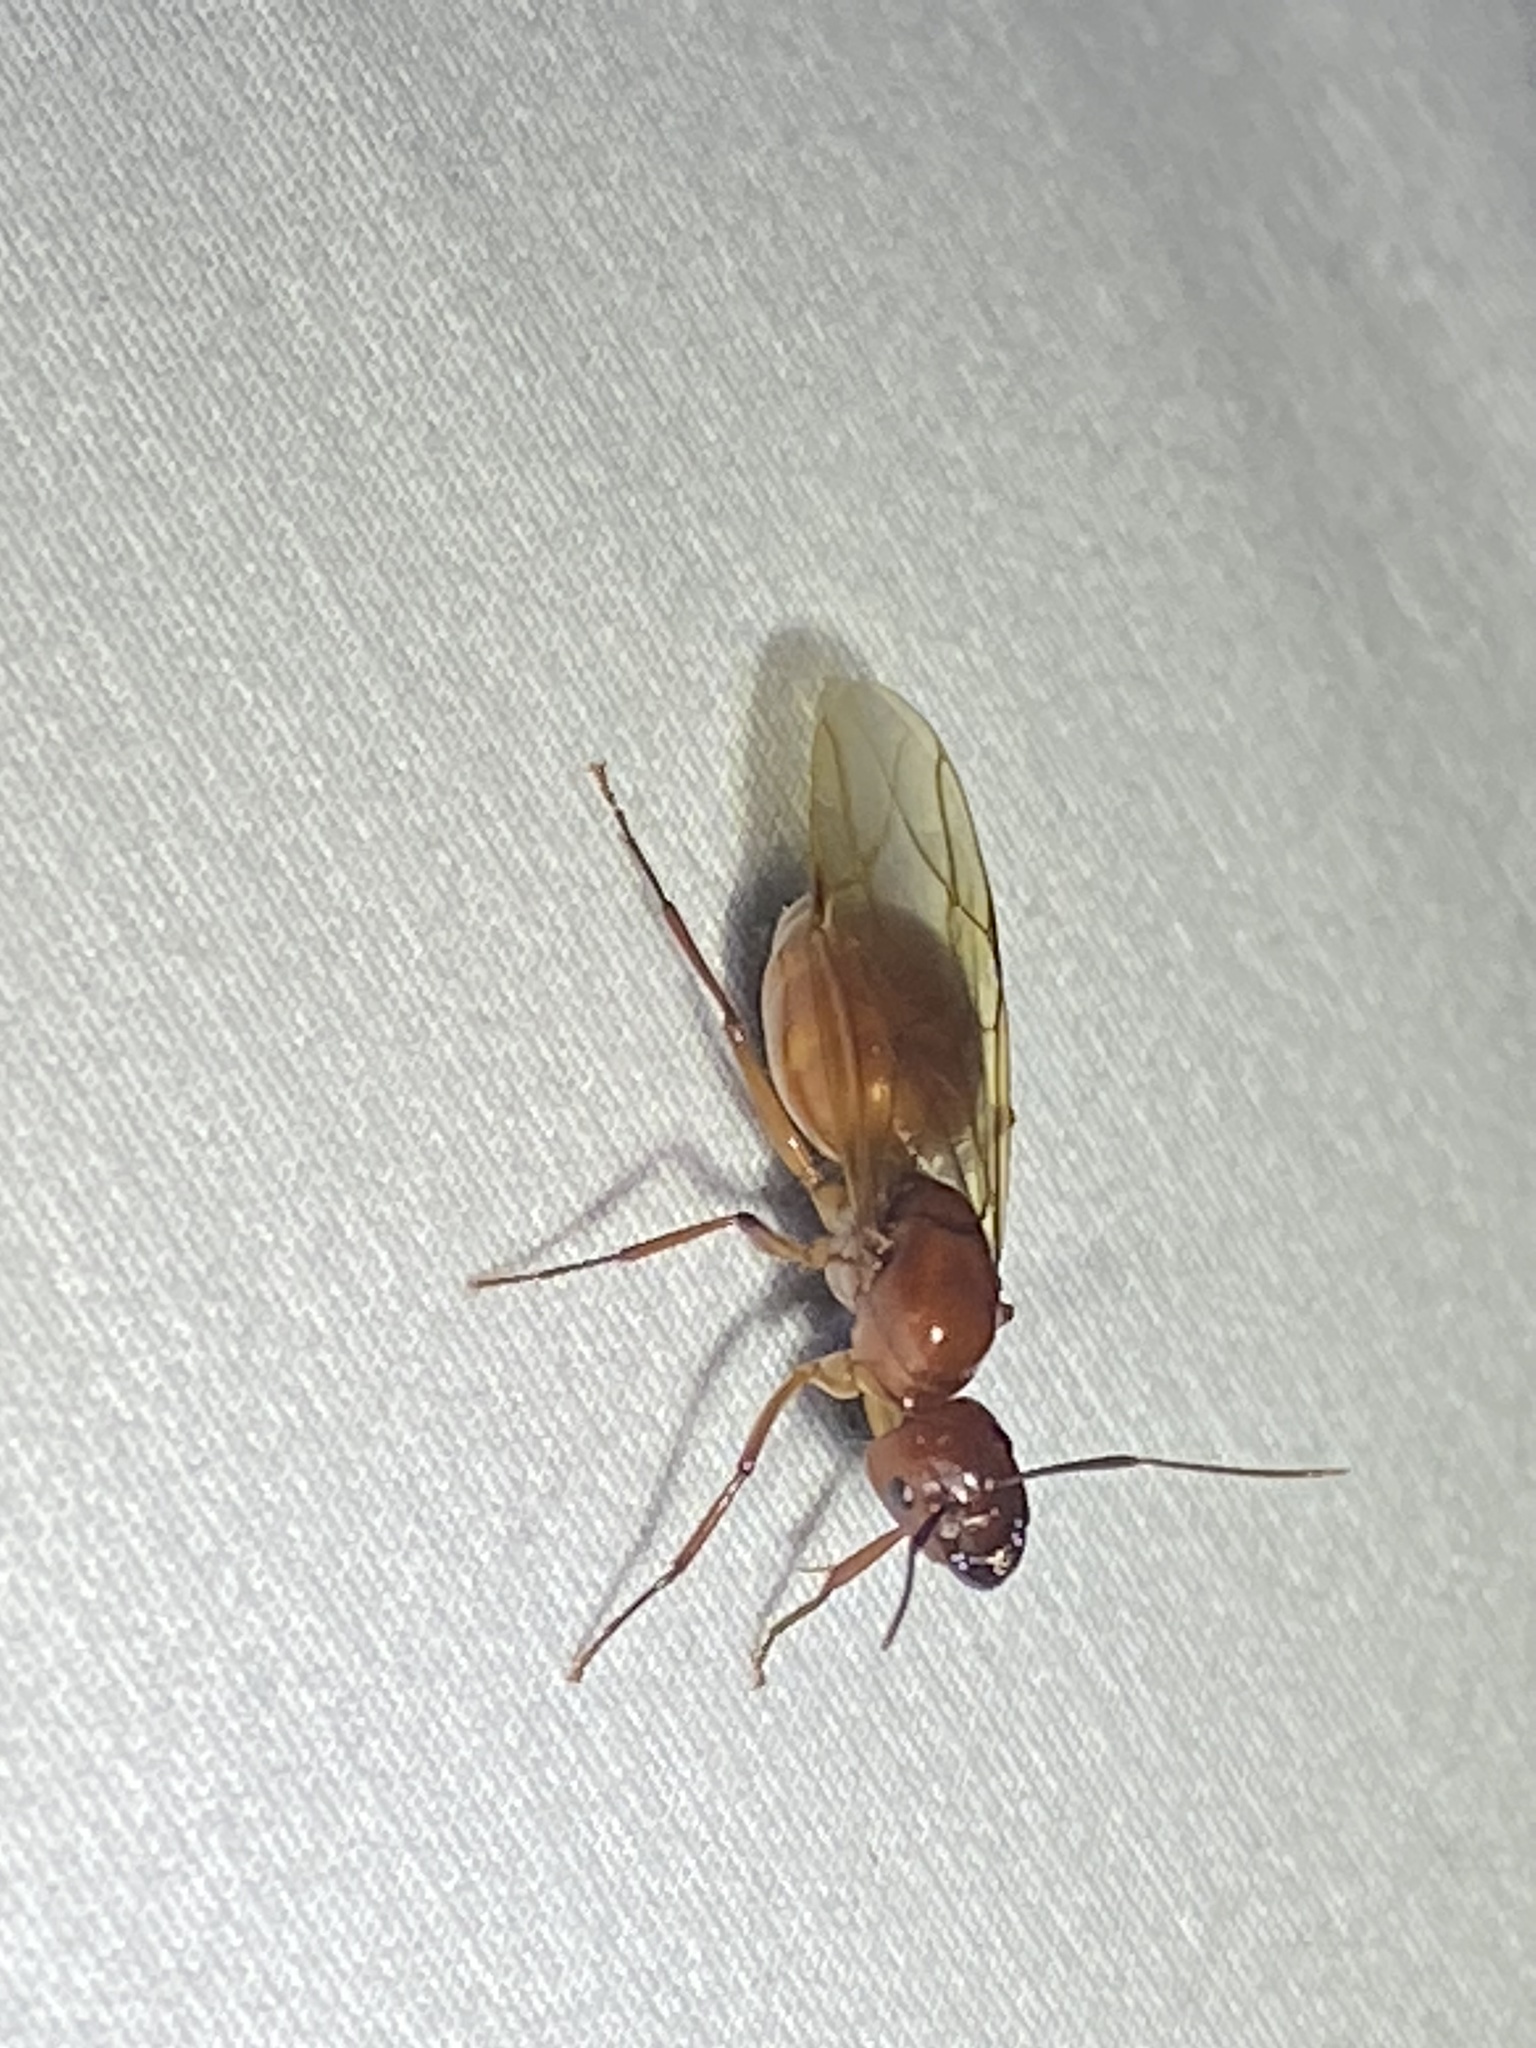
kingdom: Animalia
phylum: Arthropoda
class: Insecta
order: Hymenoptera
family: Formicidae
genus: Camponotus
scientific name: Camponotus castaneus
